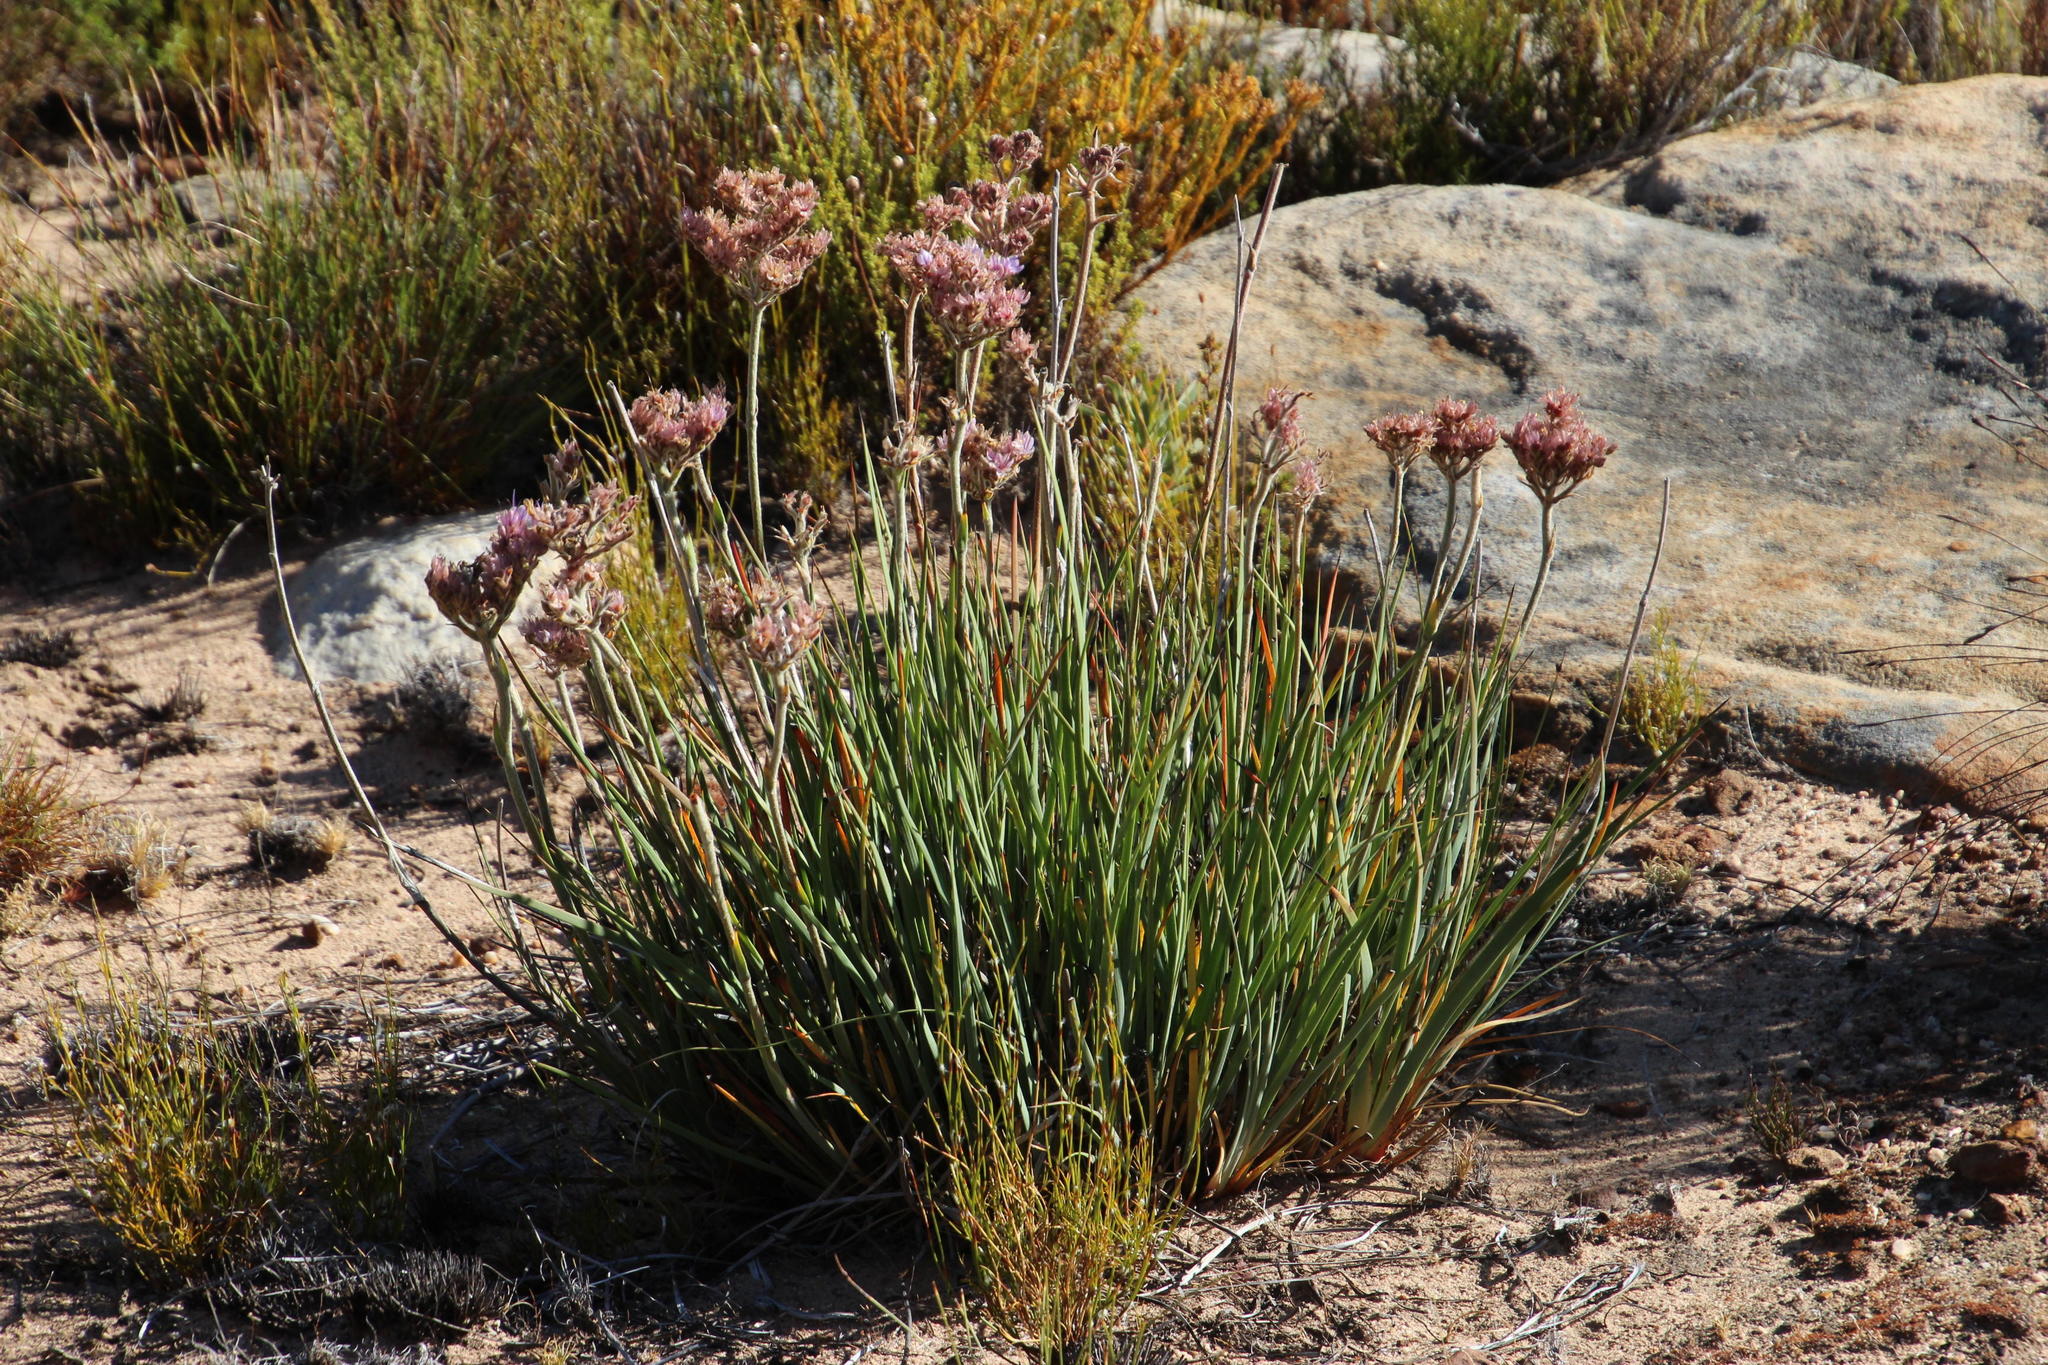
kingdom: Plantae
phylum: Tracheophyta
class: Liliopsida
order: Commelinales
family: Haemodoraceae
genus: Dilatris
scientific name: Dilatris ixioides
